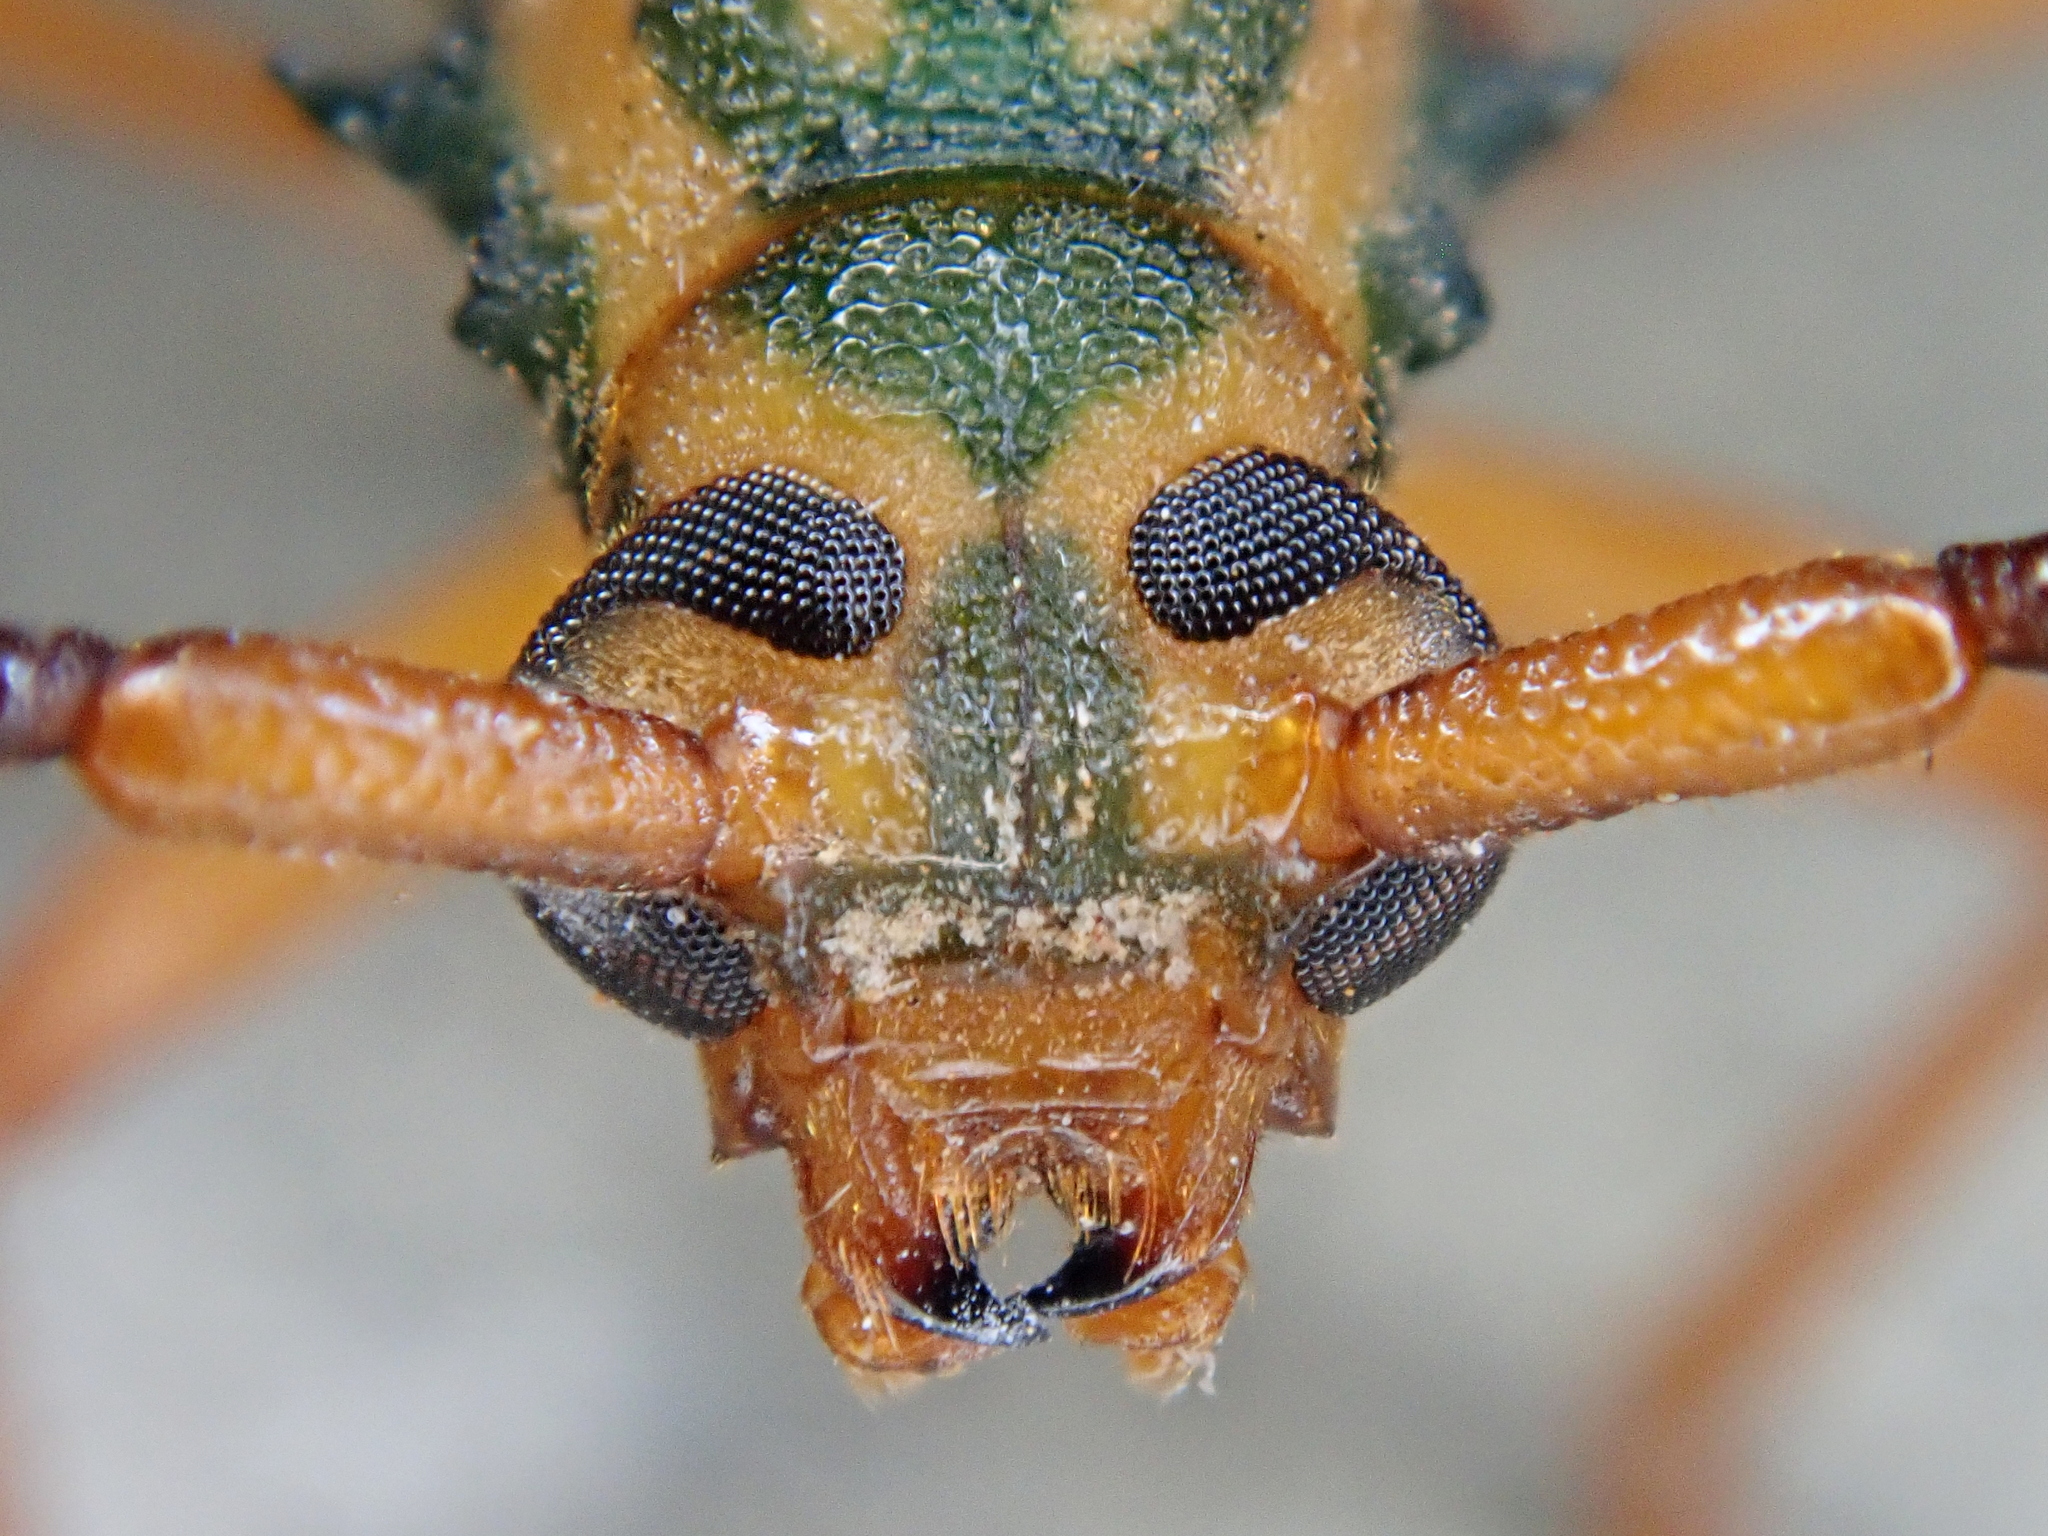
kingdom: Animalia
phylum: Arthropoda
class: Insecta
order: Coleoptera
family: Cerambycidae
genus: Chlorida
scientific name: Chlorida festiva
